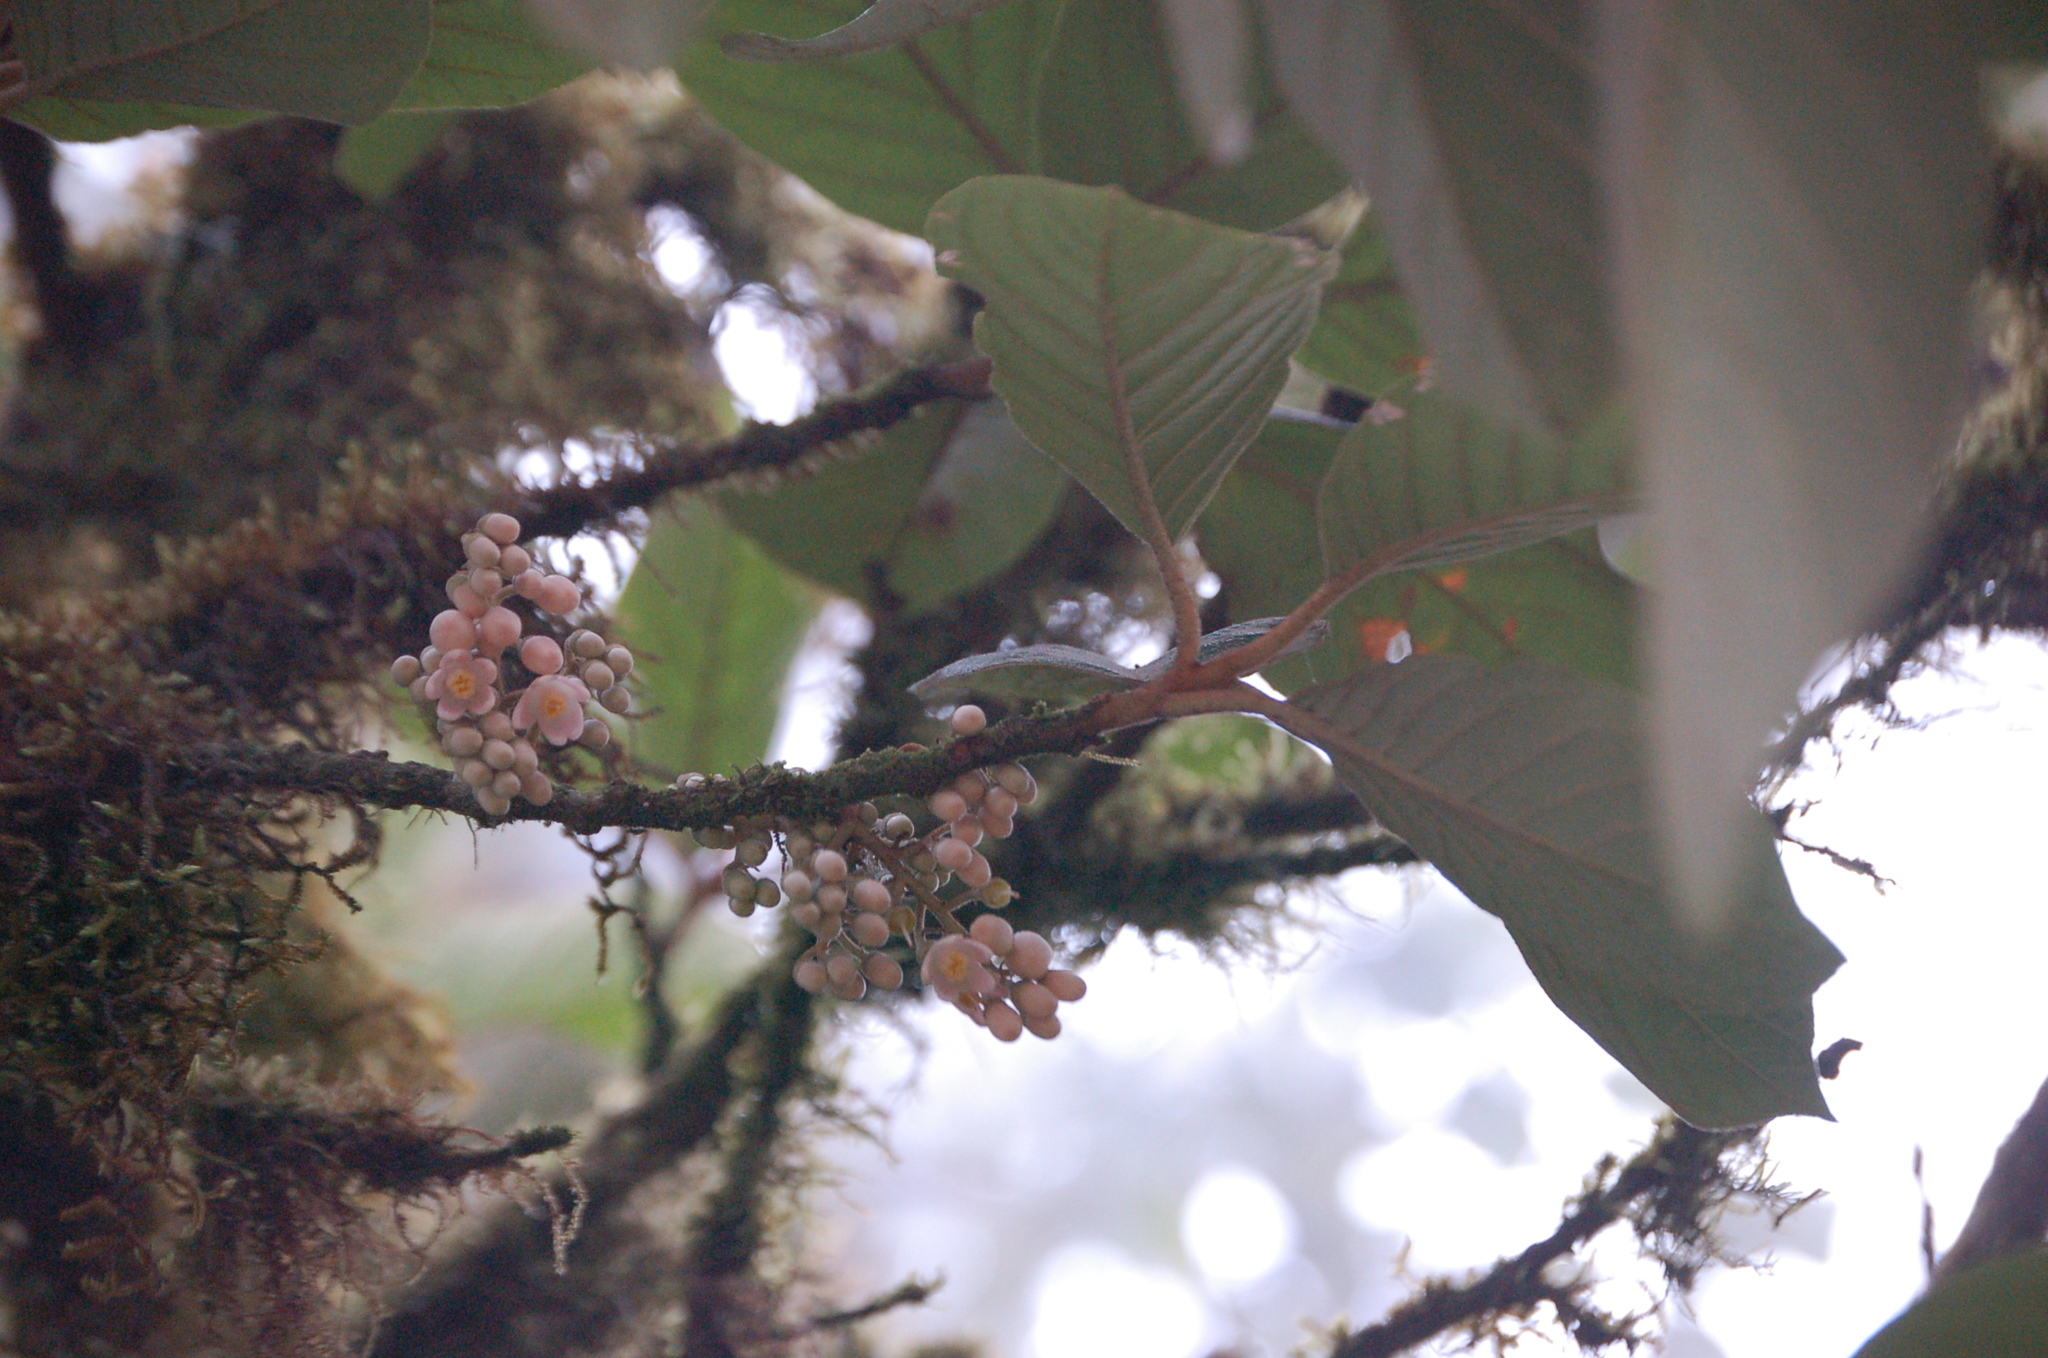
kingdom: Plantae
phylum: Tracheophyta
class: Magnoliopsida
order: Ericales
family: Styracaceae
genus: Styrax
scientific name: Styrax magnus
